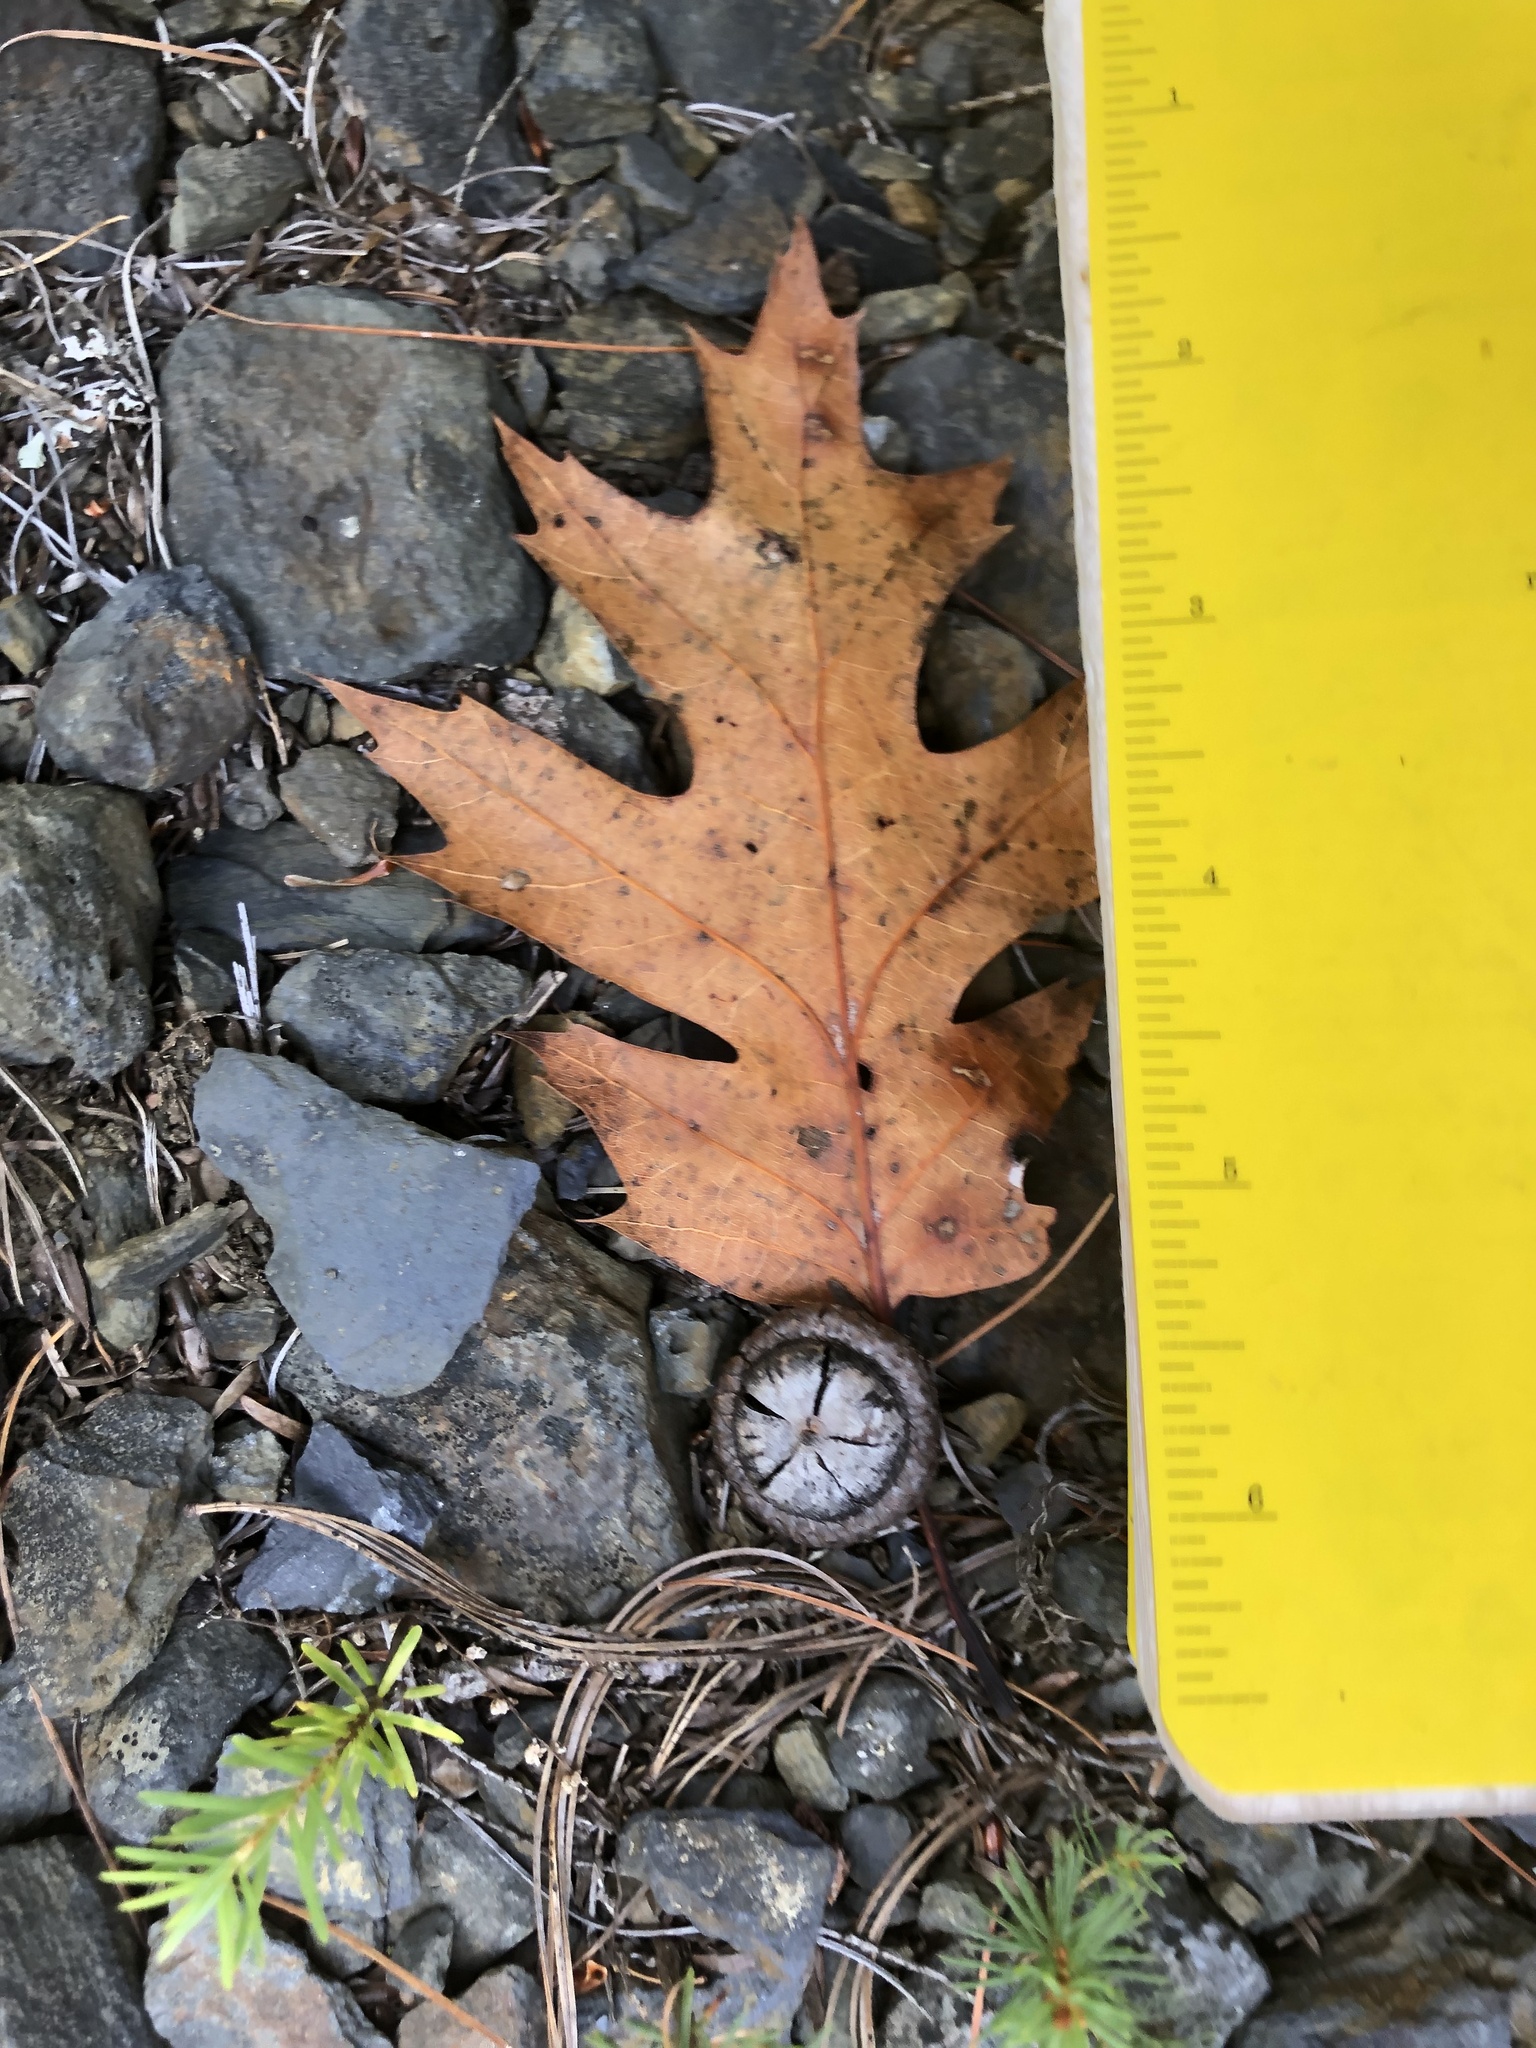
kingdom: Plantae
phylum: Tracheophyta
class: Magnoliopsida
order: Fagales
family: Fagaceae
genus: Quercus
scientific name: Quercus rubra
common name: Red oak
